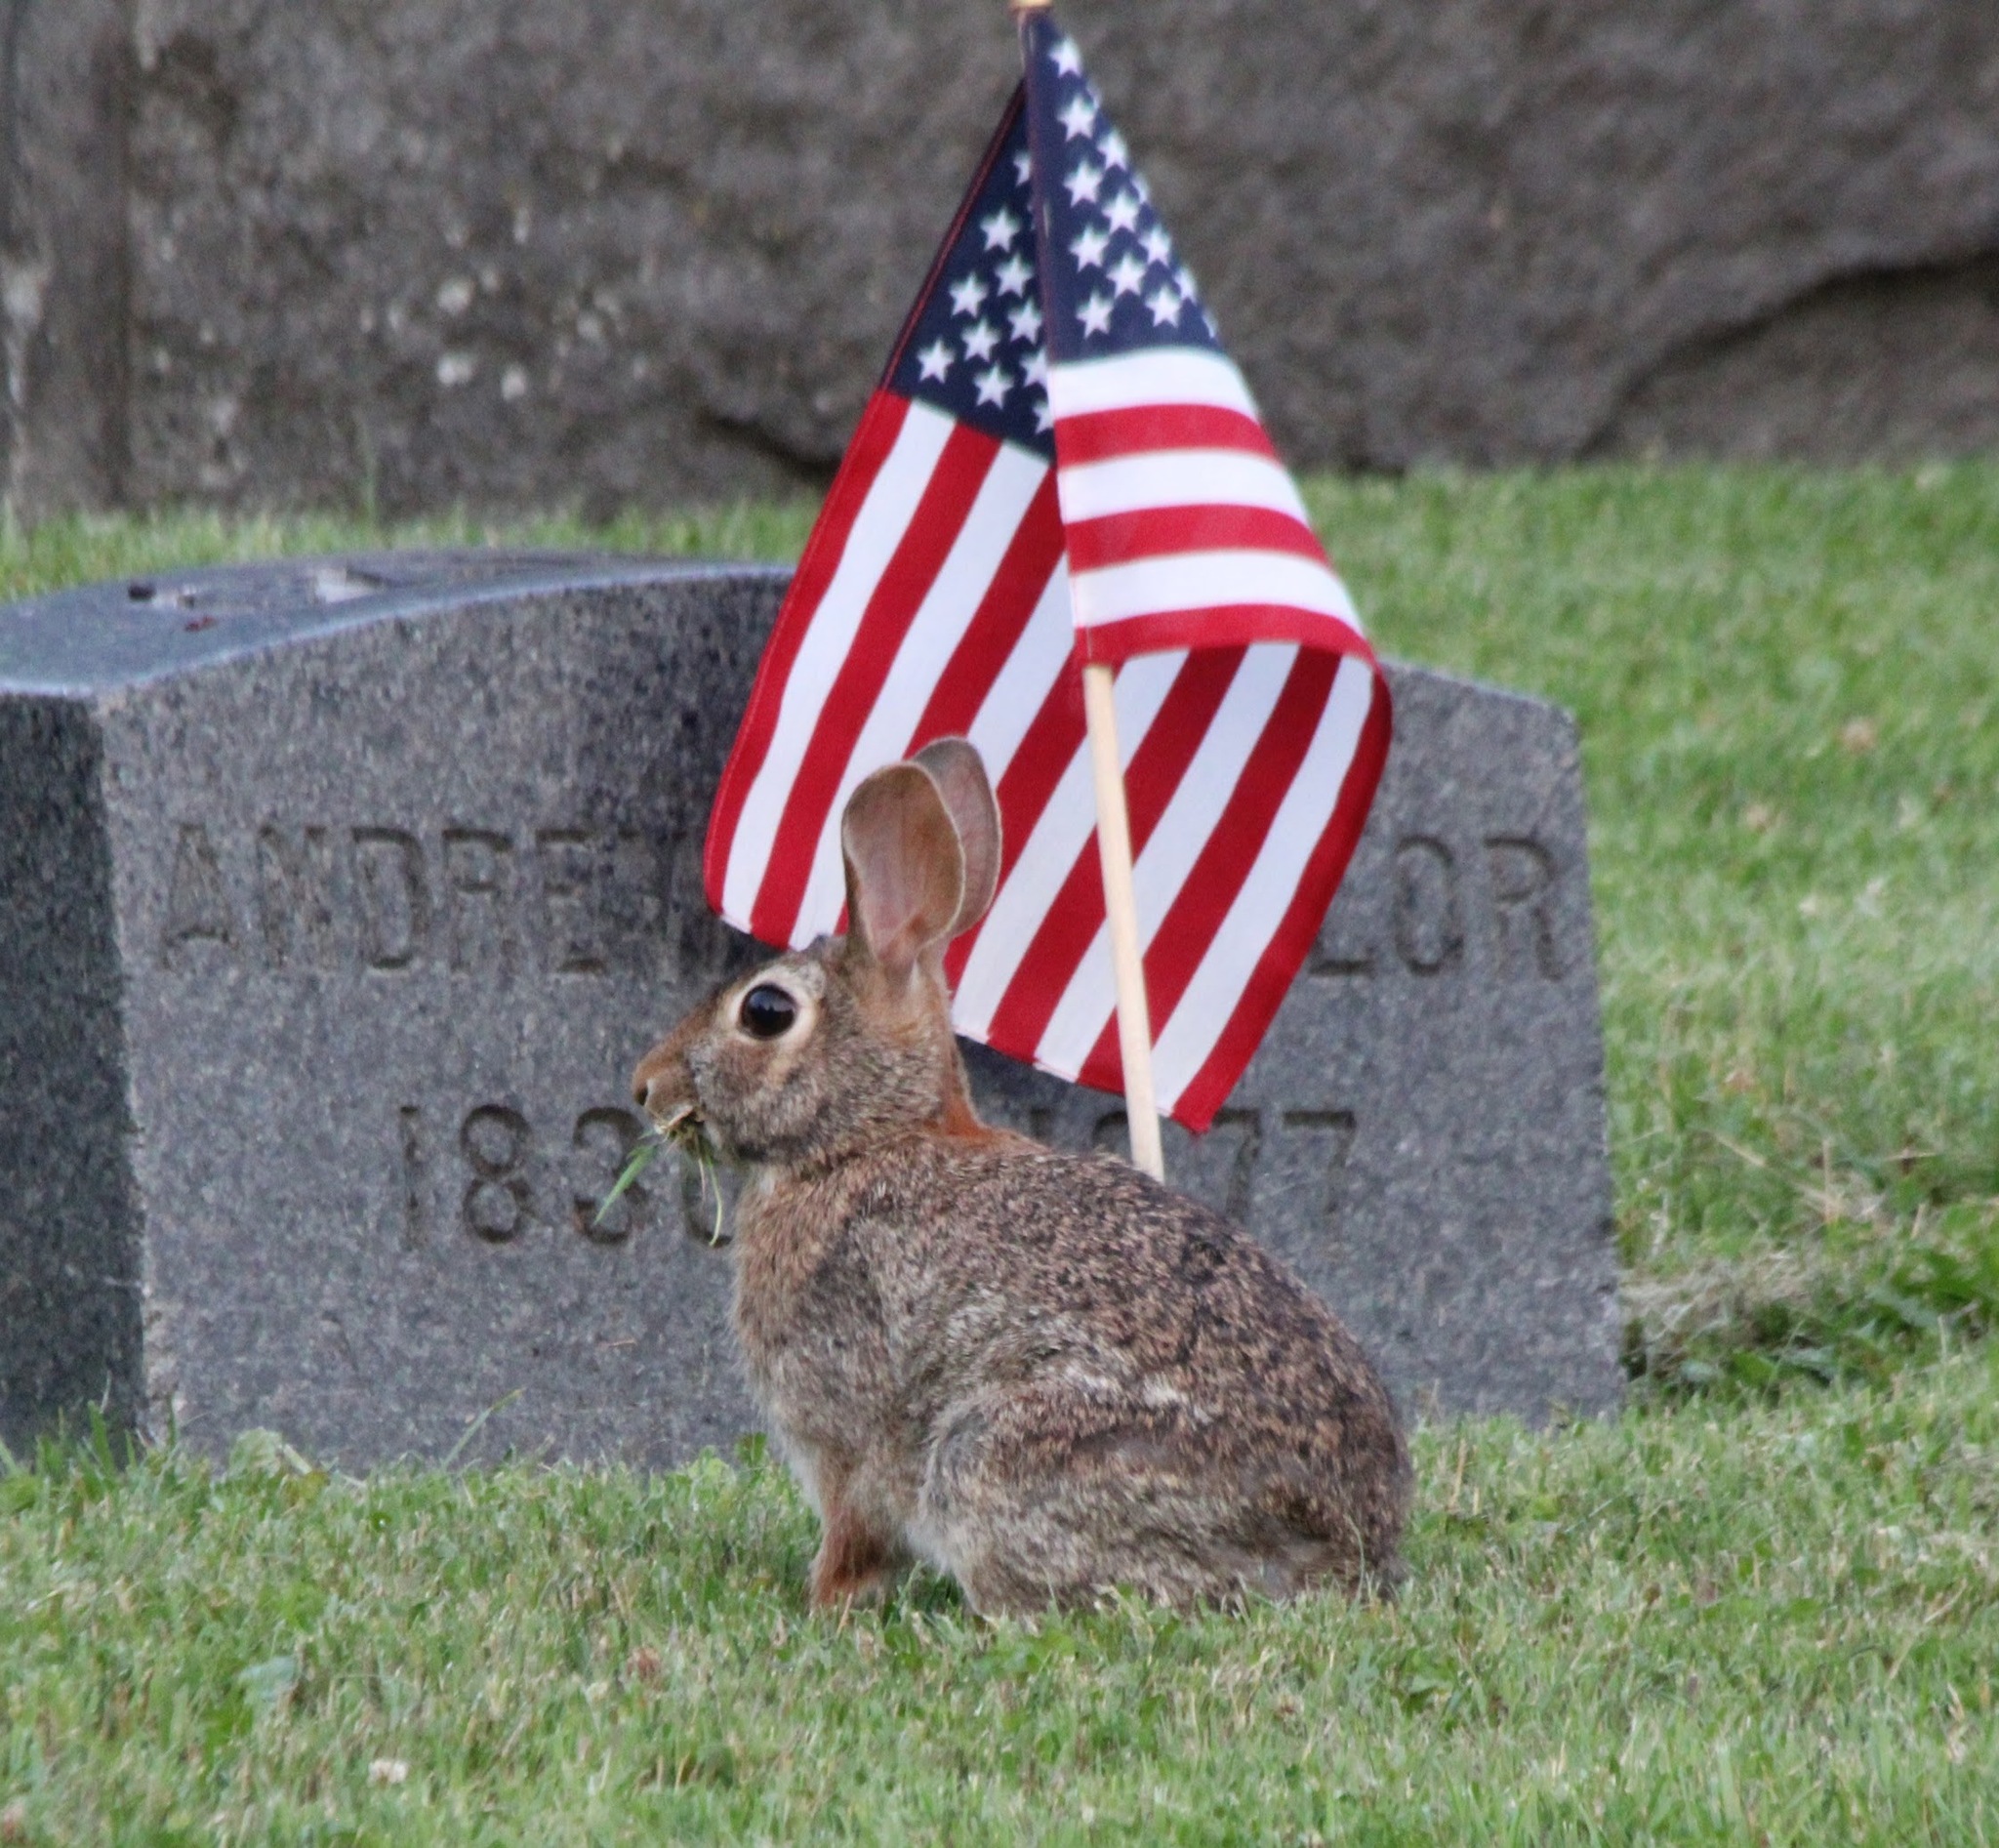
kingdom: Animalia
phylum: Chordata
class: Mammalia
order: Lagomorpha
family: Leporidae
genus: Sylvilagus
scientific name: Sylvilagus floridanus
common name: Eastern cottontail
